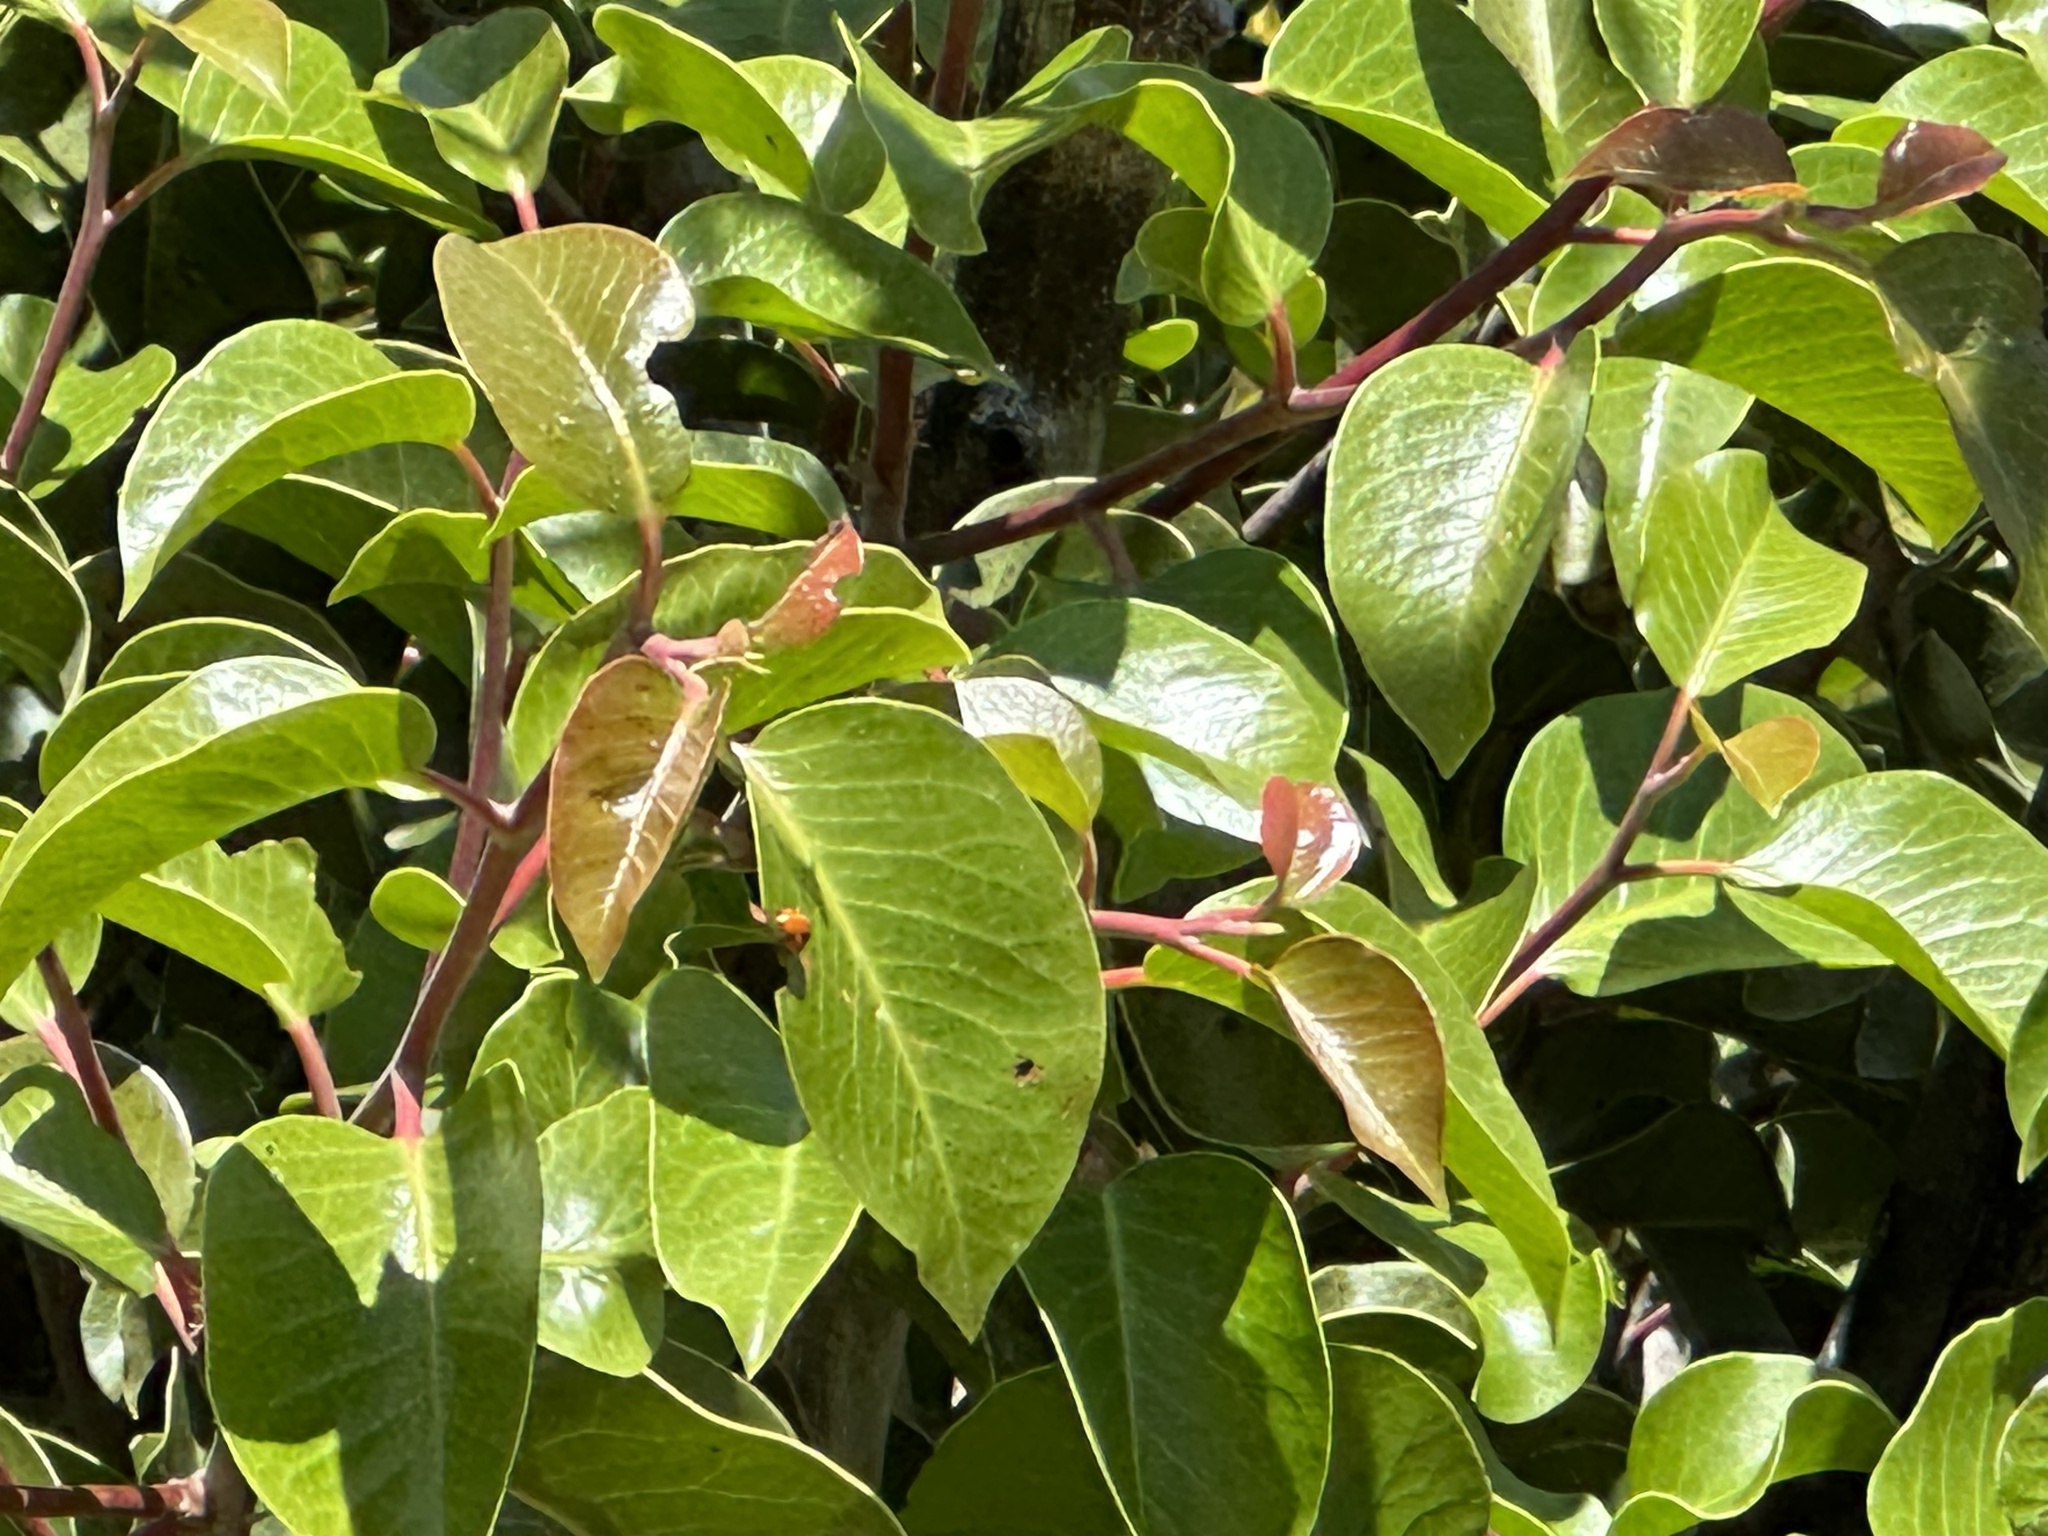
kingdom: Plantae
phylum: Tracheophyta
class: Magnoliopsida
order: Sapindales
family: Anacardiaceae
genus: Rhus
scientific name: Rhus ovata
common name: Sugar sumac
